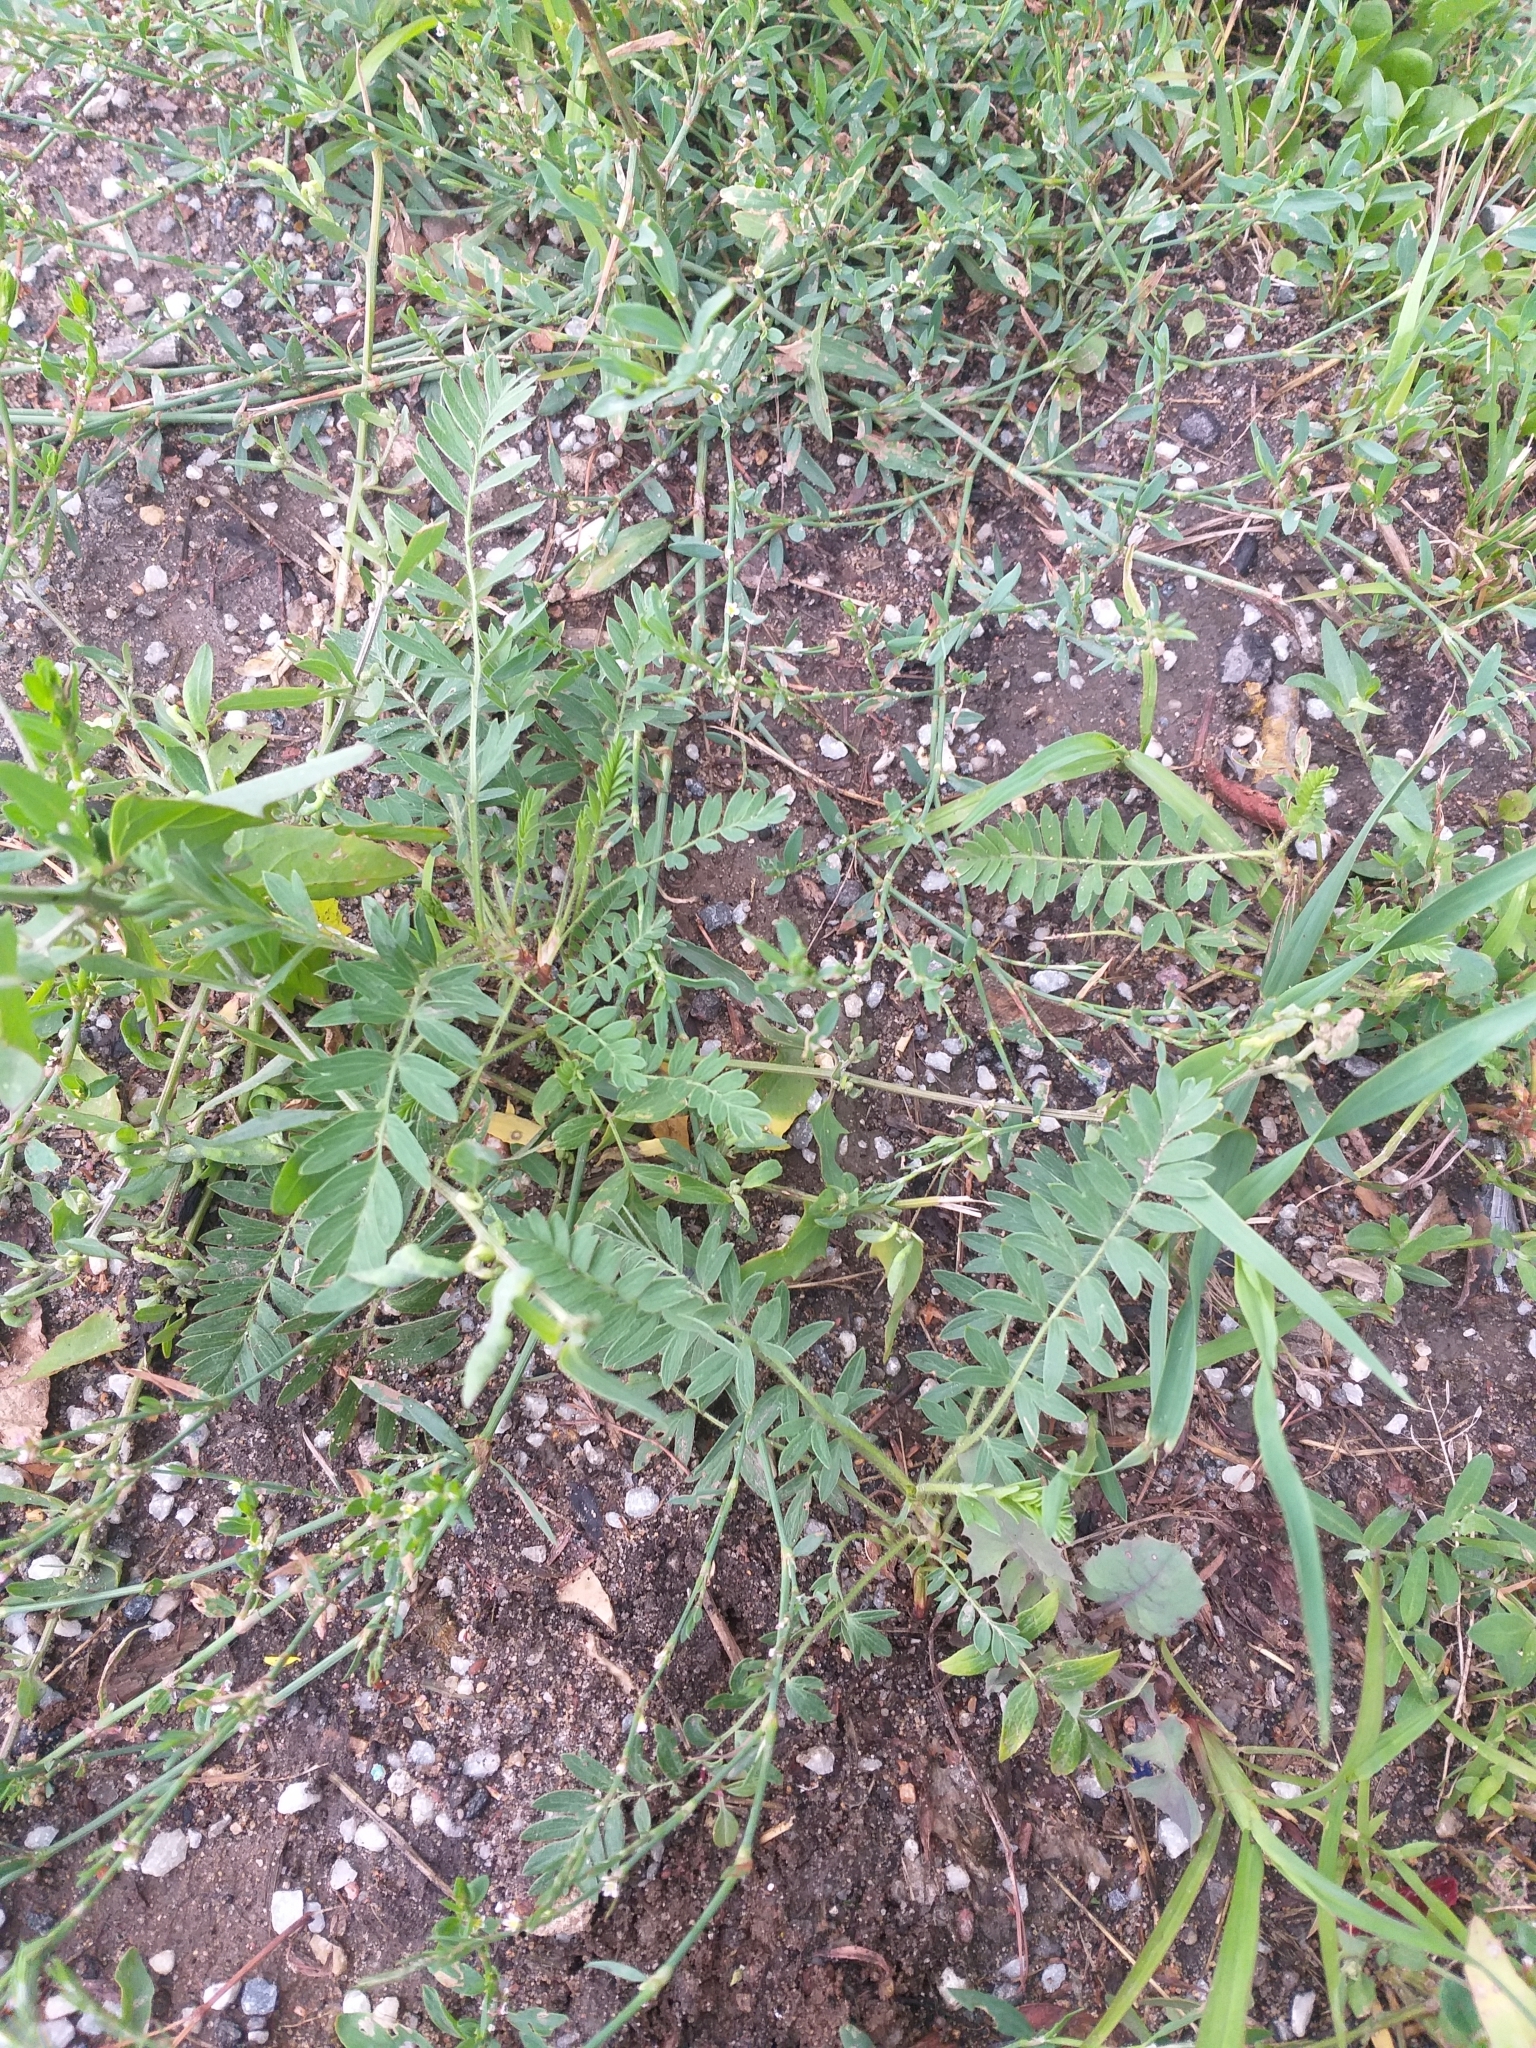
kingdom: Plantae
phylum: Tracheophyta
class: Magnoliopsida
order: Rosales
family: Rosaceae
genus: Sibbaldianthe
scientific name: Sibbaldianthe bifurca
